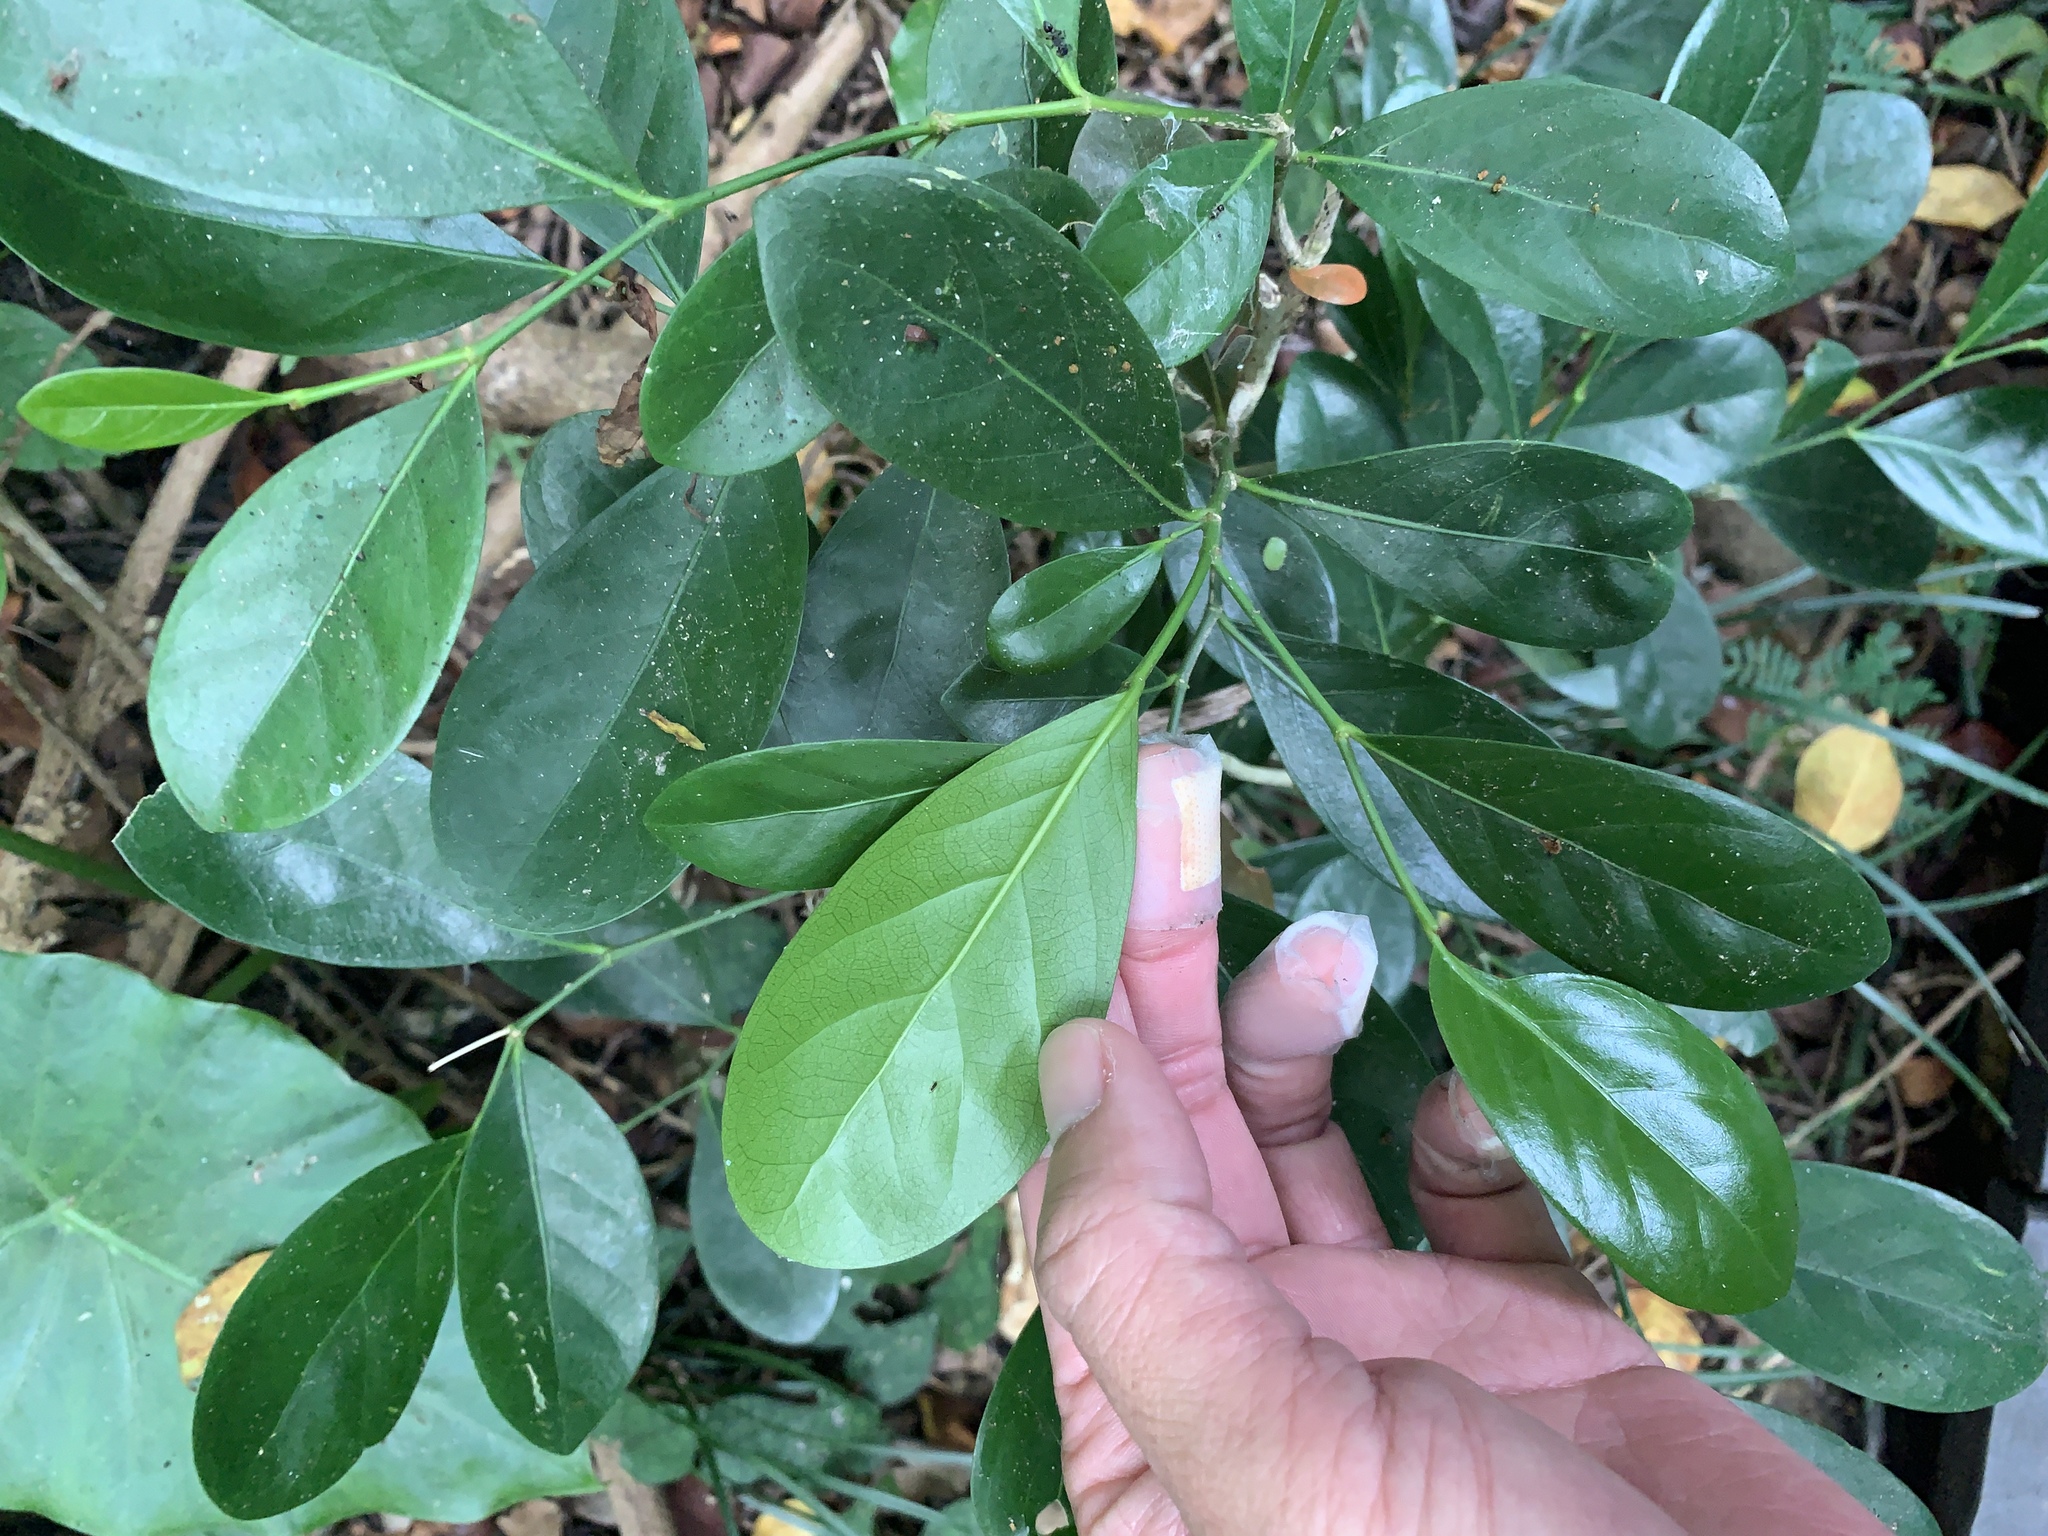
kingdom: Plantae
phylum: Tracheophyta
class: Magnoliopsida
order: Malpighiales
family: Euphorbiaceae
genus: Suregada
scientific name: Suregada aequorea
